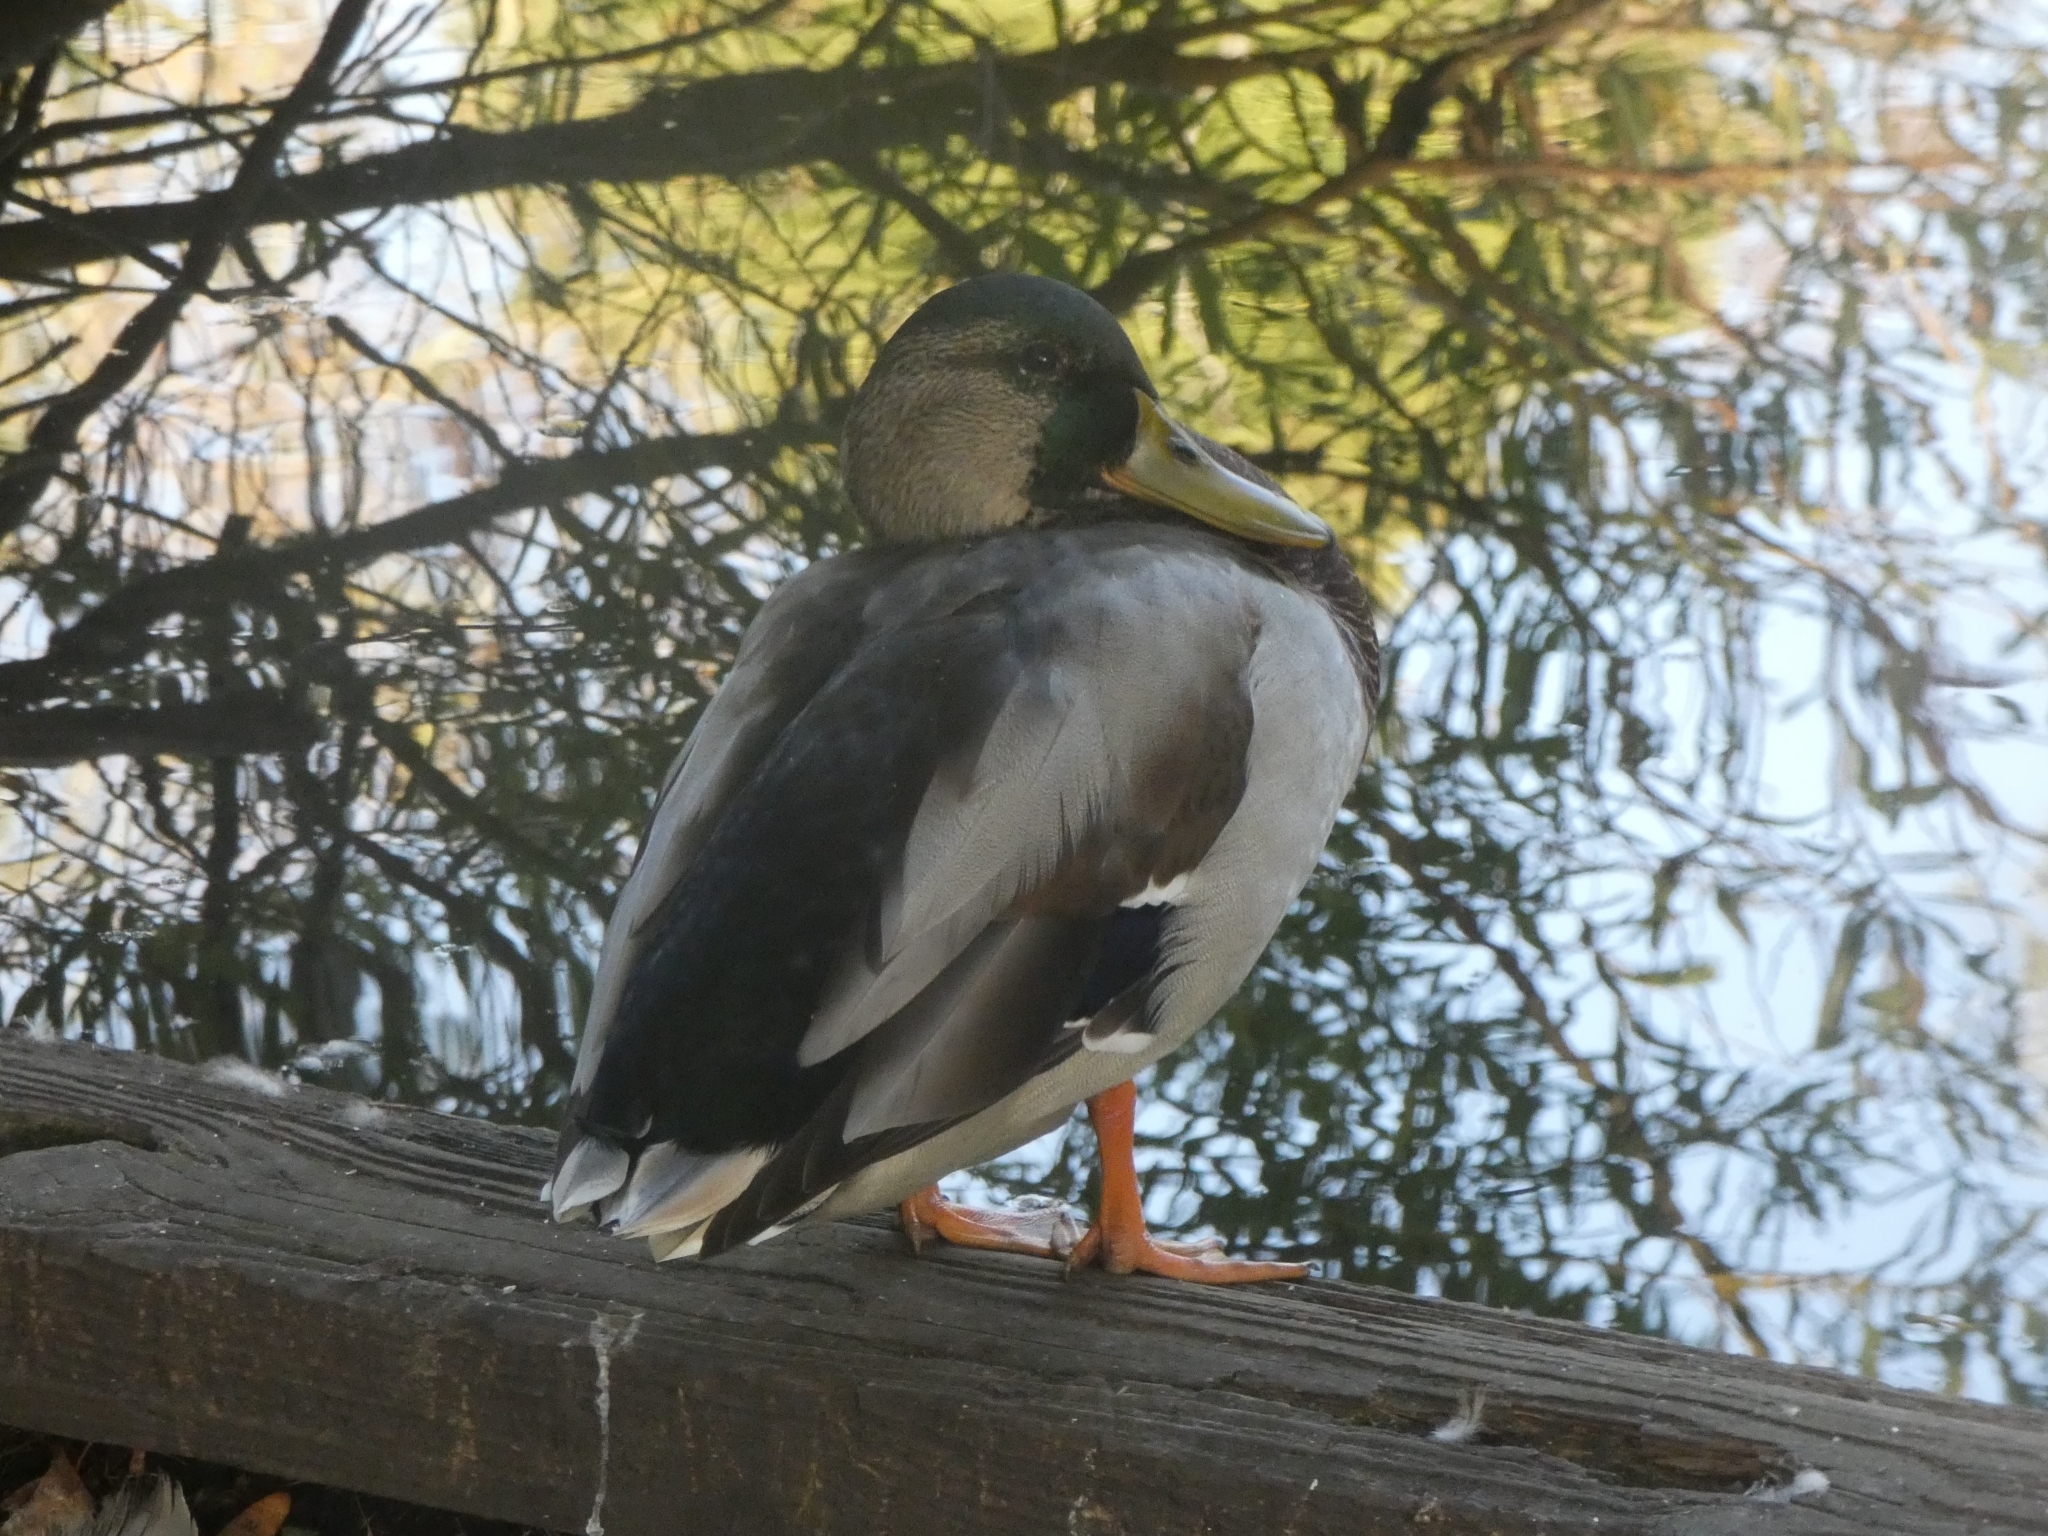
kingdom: Animalia
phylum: Chordata
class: Aves
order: Anseriformes
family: Anatidae
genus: Anas
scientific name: Anas platyrhynchos
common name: Mallard
